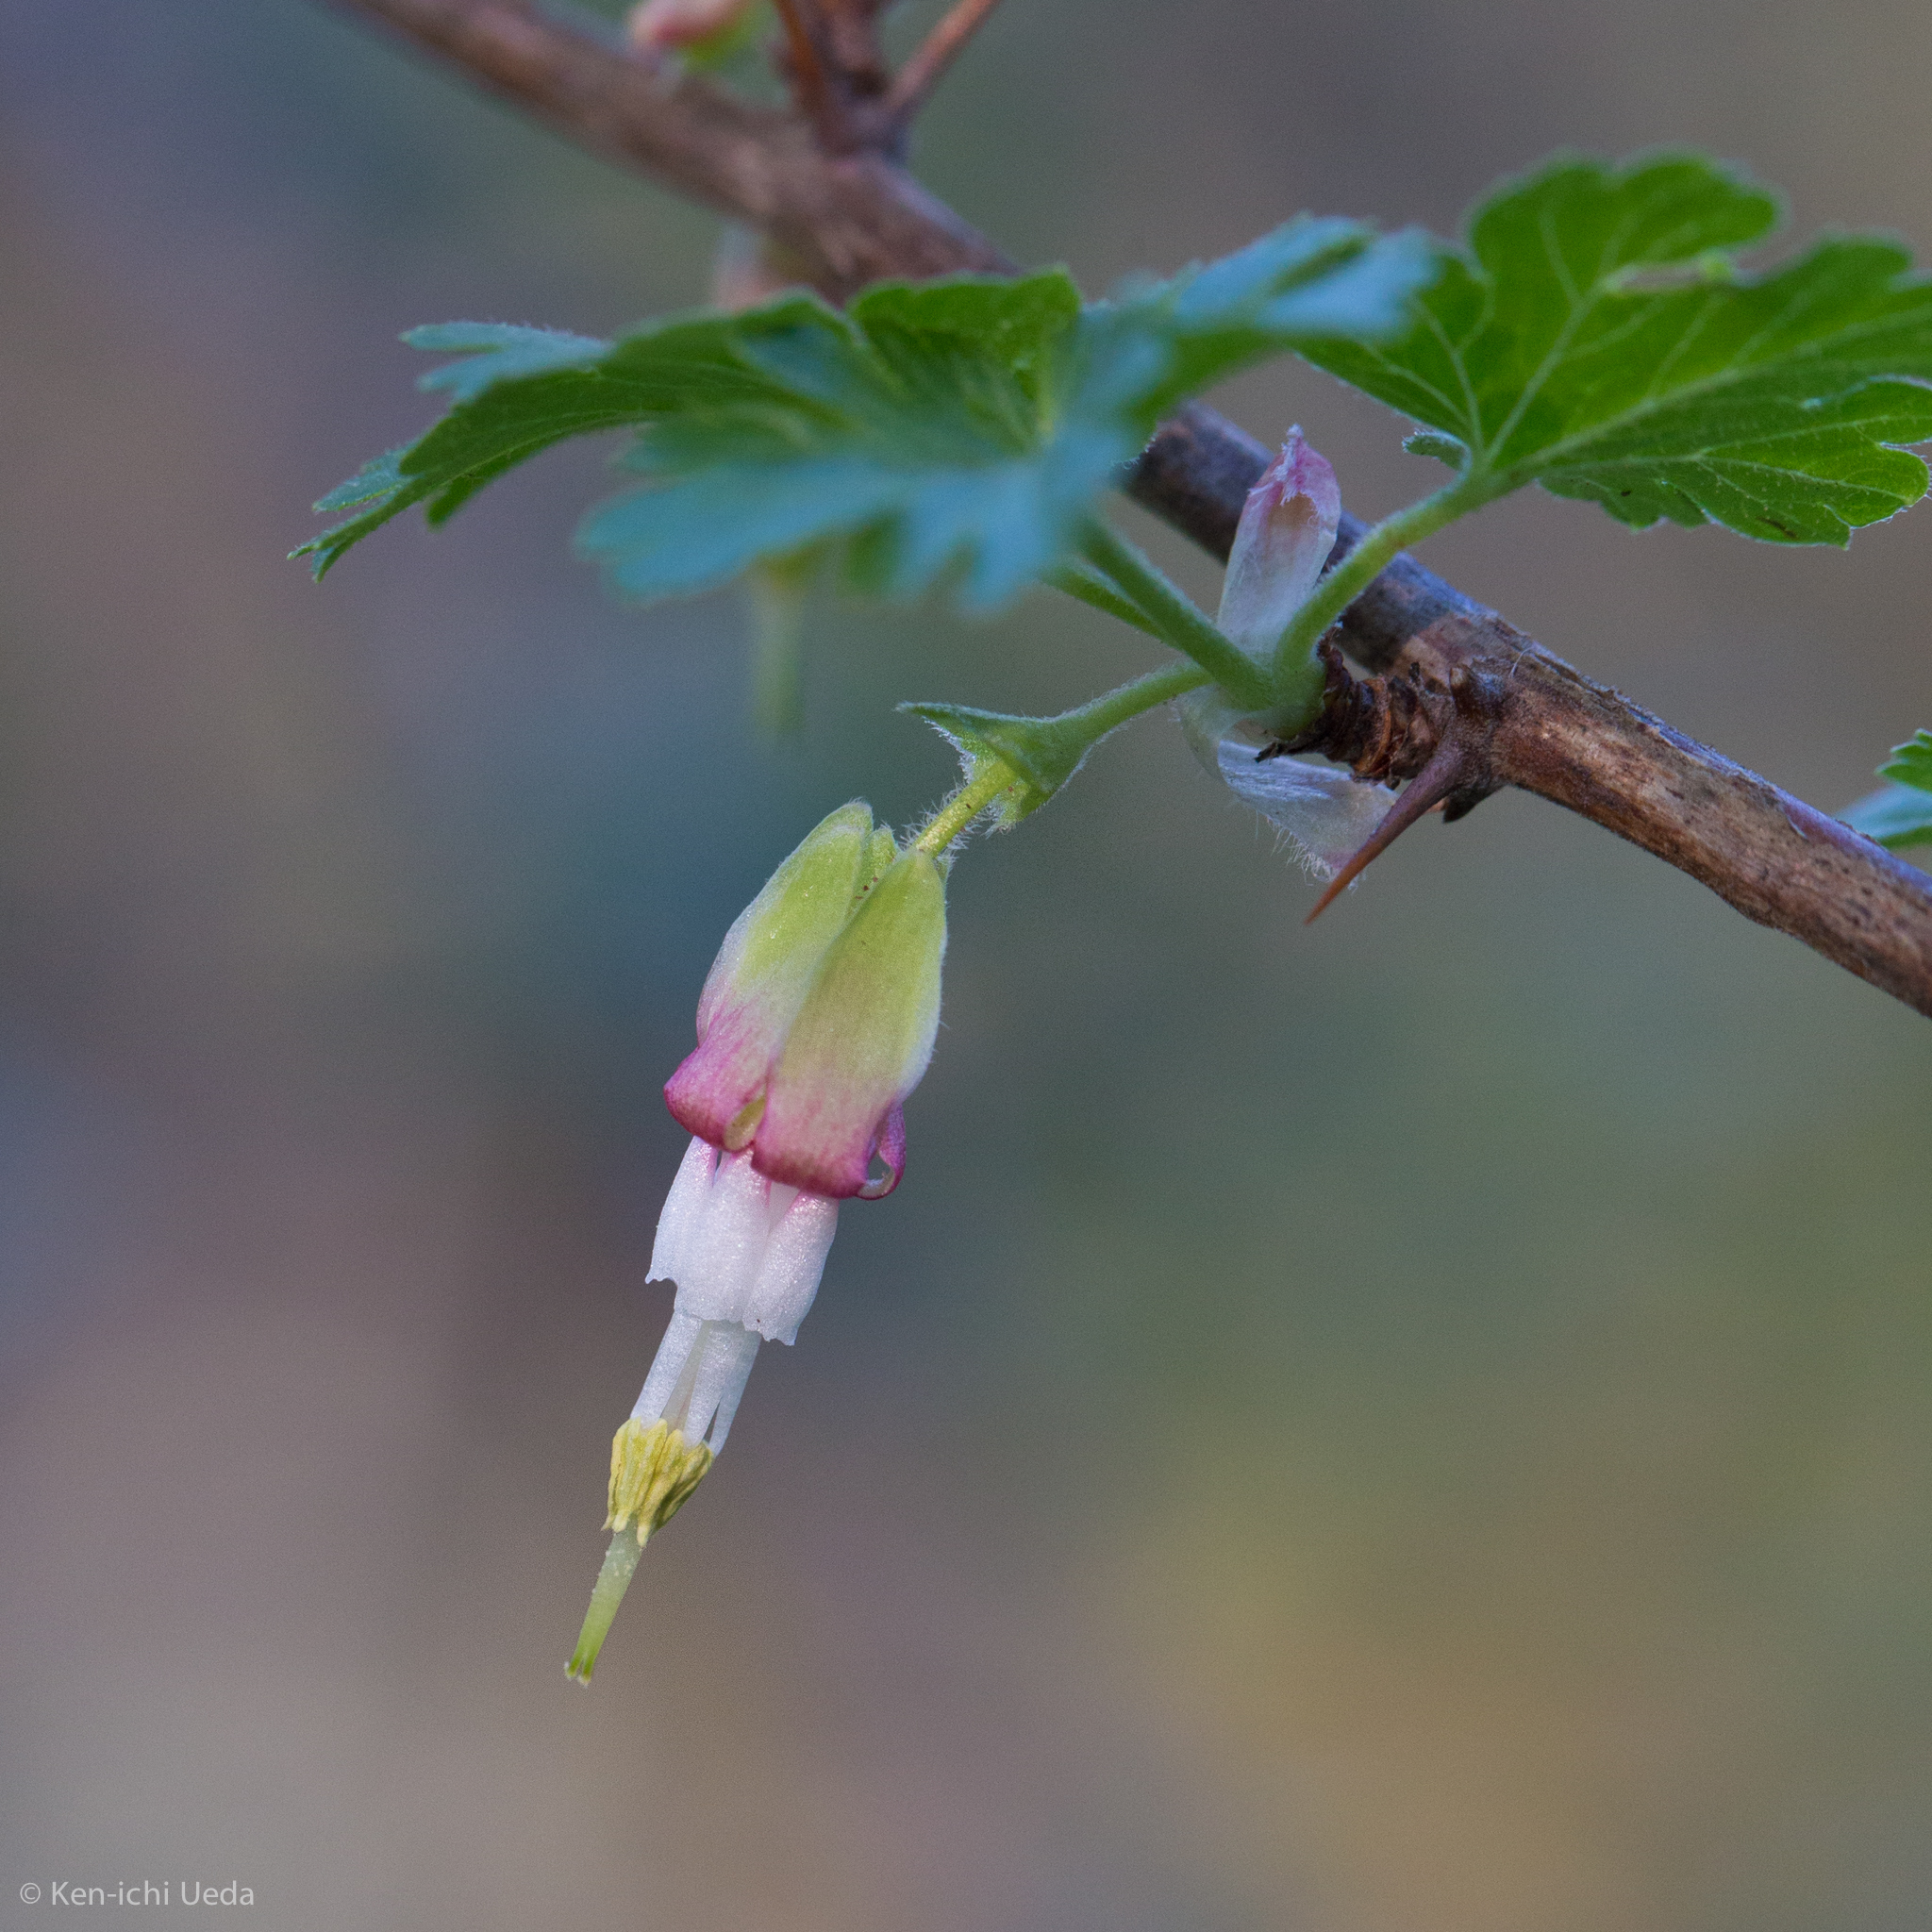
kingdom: Plantae
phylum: Tracheophyta
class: Magnoliopsida
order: Saxifragales
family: Grossulariaceae
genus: Ribes
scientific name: Ribes californicum
